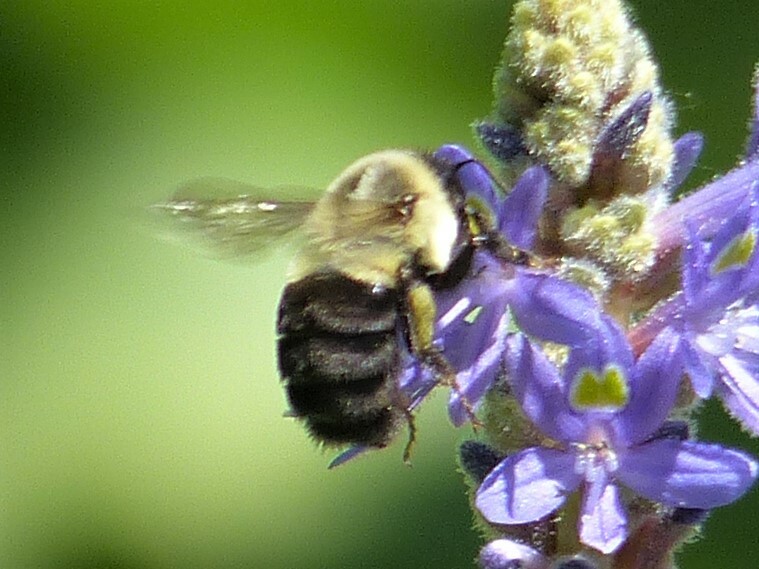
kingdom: Animalia
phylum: Arthropoda
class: Insecta
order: Hymenoptera
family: Apidae
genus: Bombus
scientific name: Bombus impatiens
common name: Common eastern bumble bee
